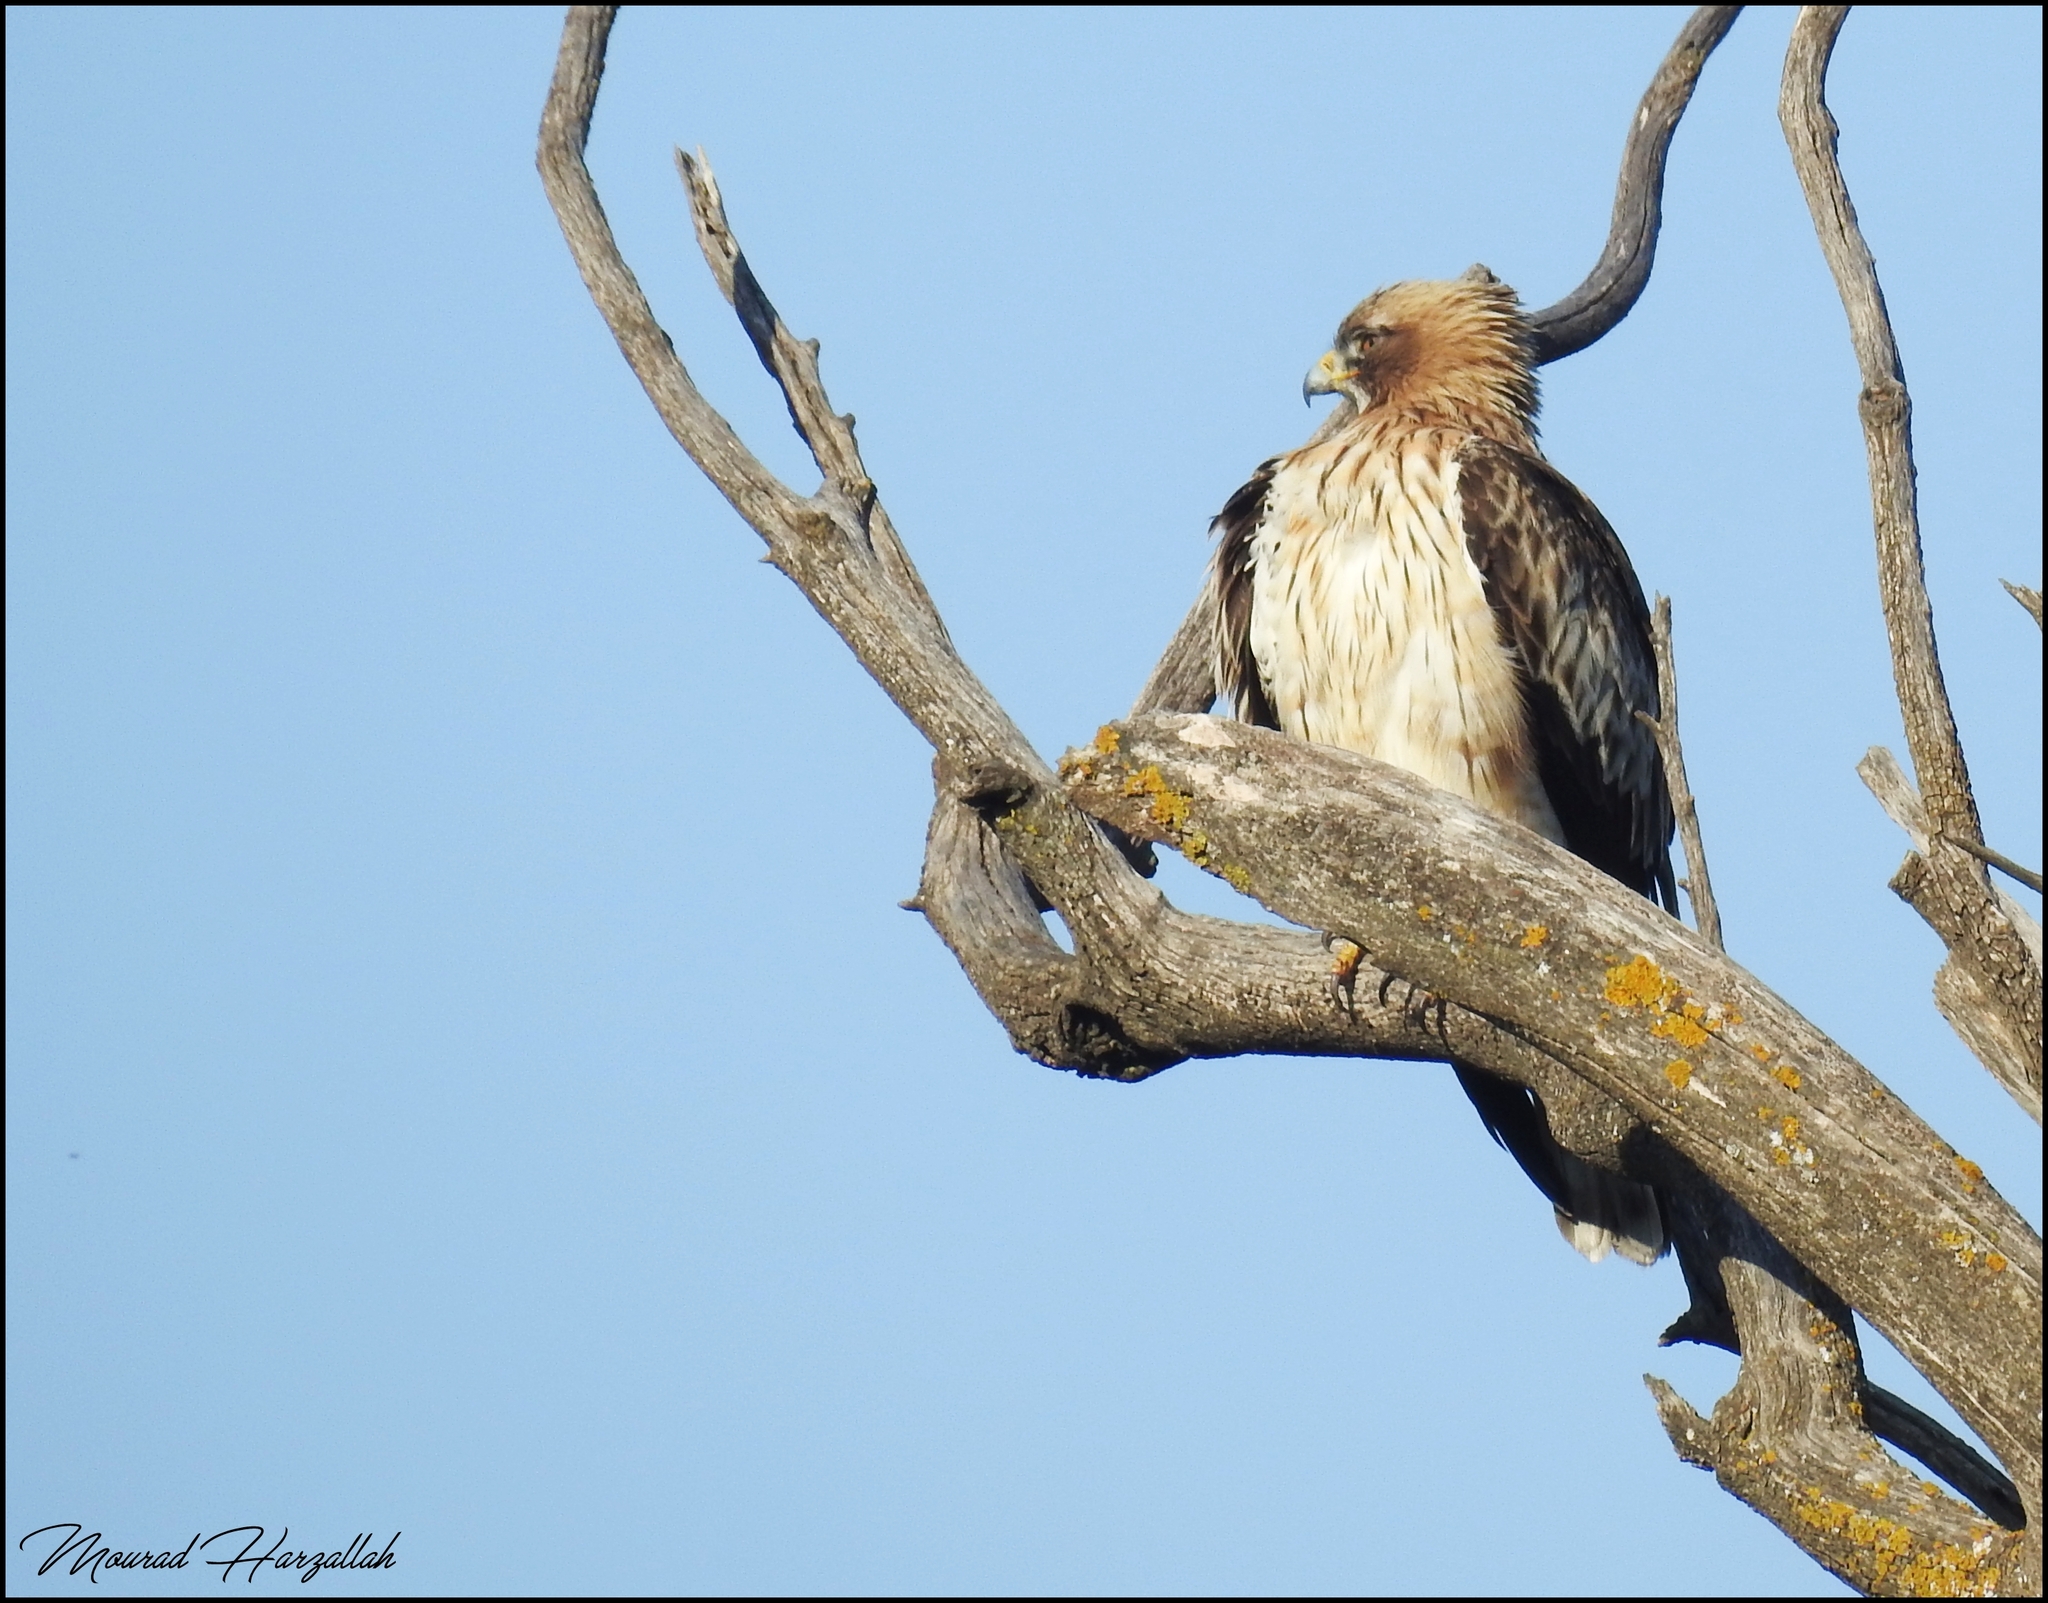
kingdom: Animalia
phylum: Chordata
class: Aves
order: Accipitriformes
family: Accipitridae
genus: Hieraaetus
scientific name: Hieraaetus pennatus
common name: Booted eagle
